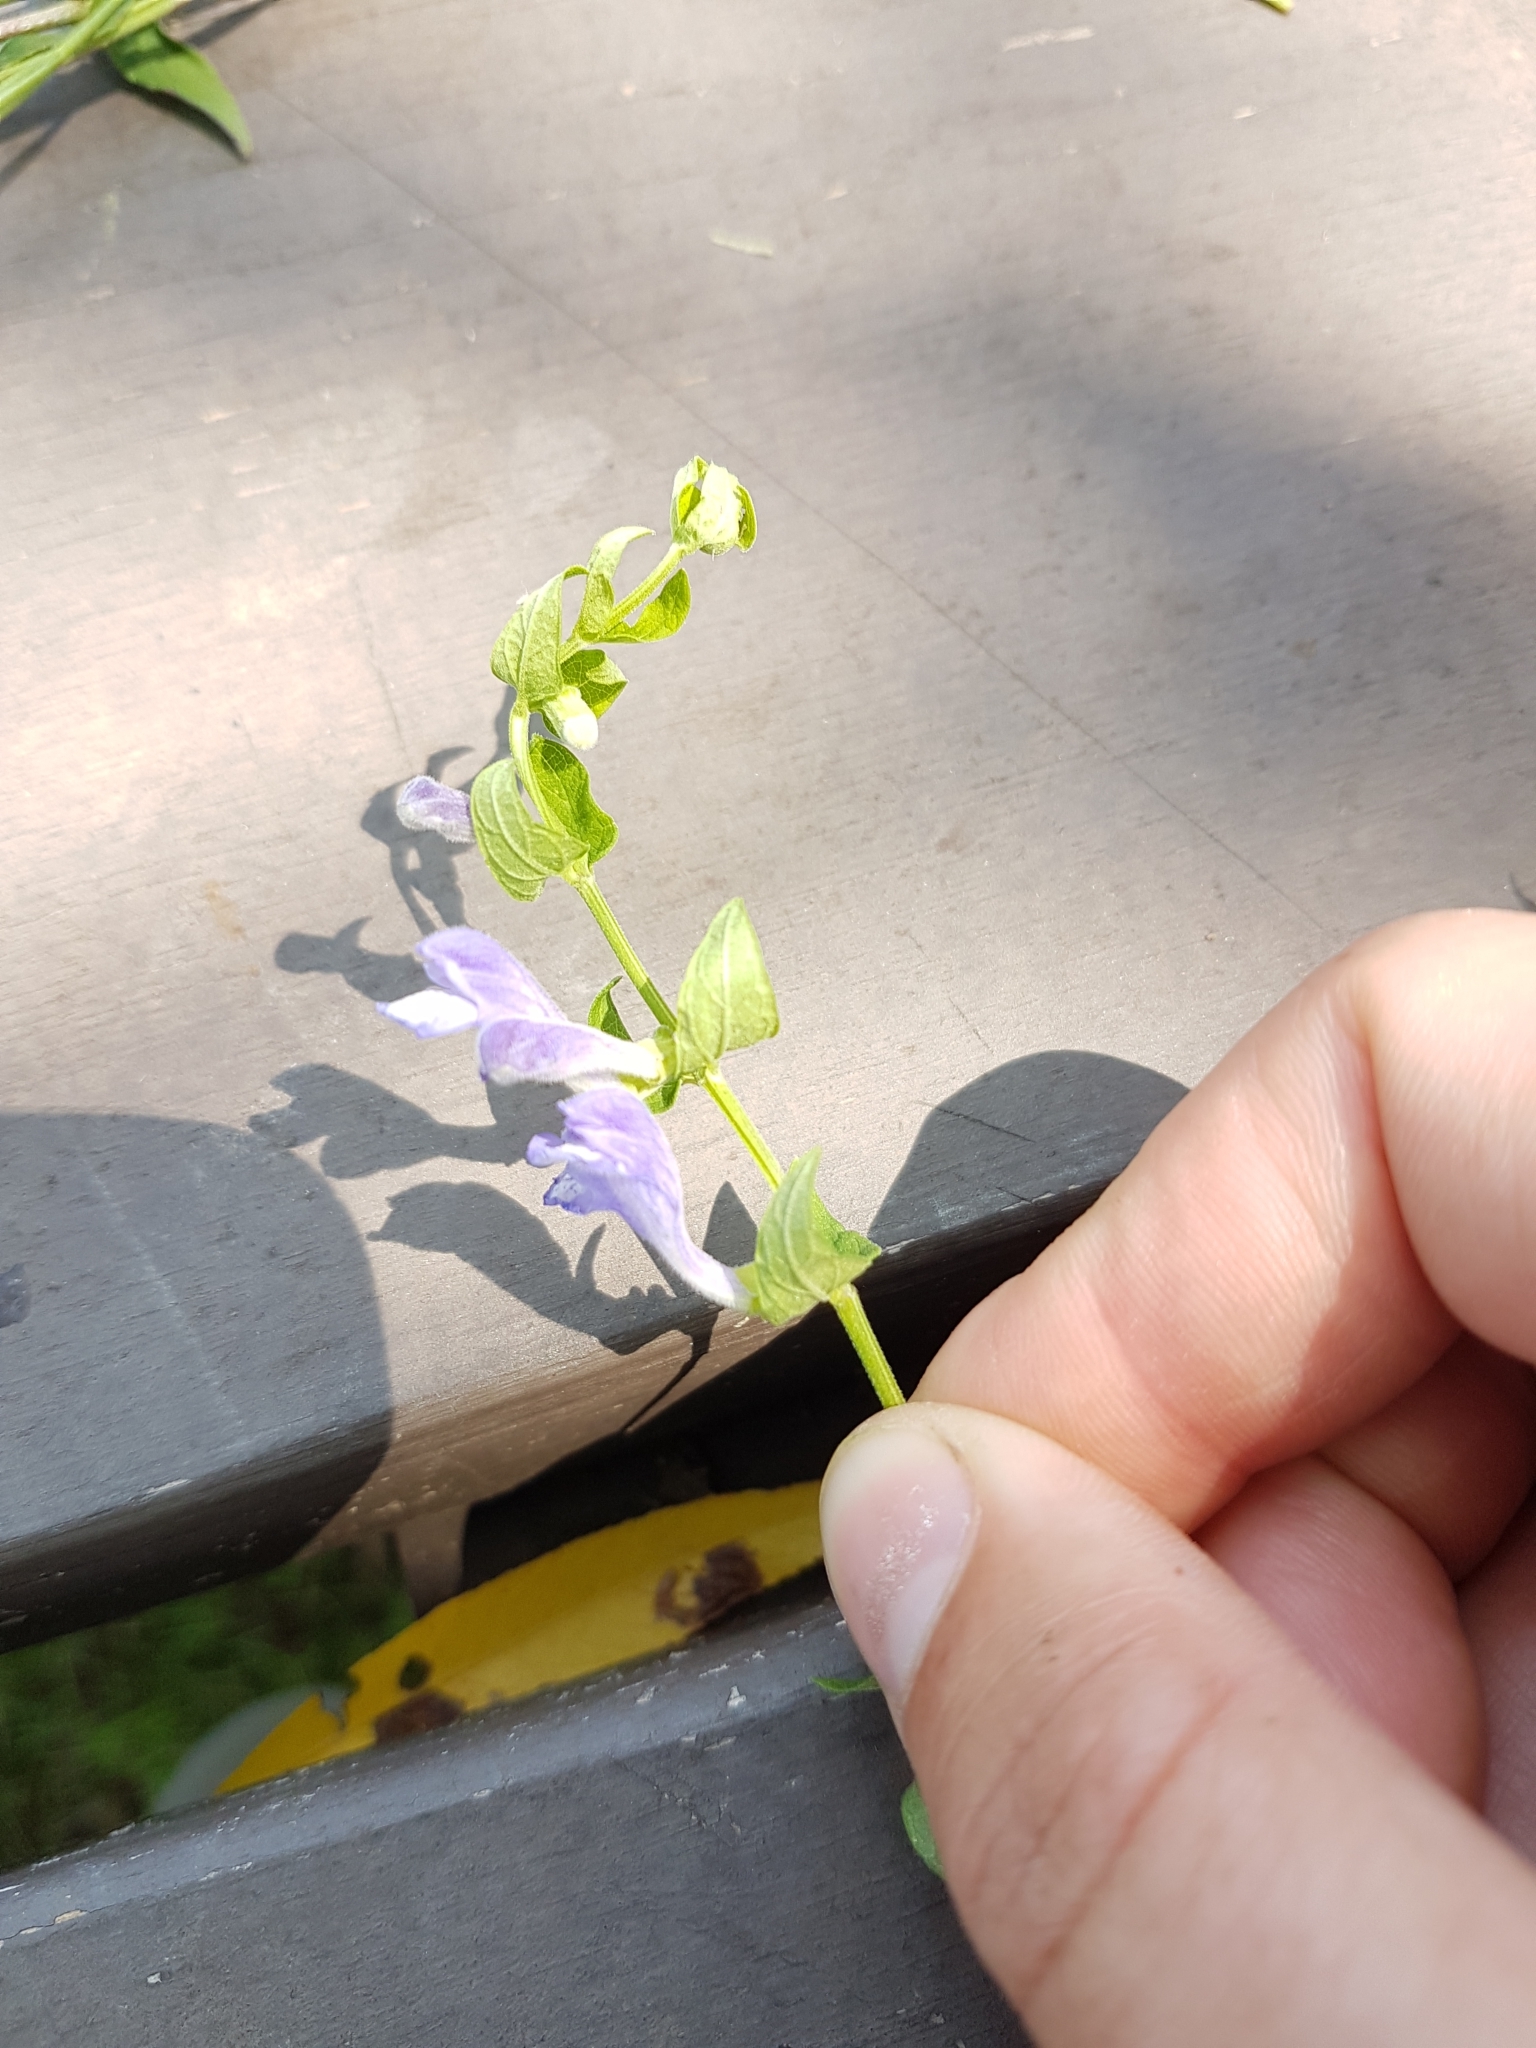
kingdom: Plantae
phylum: Tracheophyta
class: Magnoliopsida
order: Lamiales
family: Lamiaceae
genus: Scutellaria
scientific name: Scutellaria galericulata
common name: Skullcap
